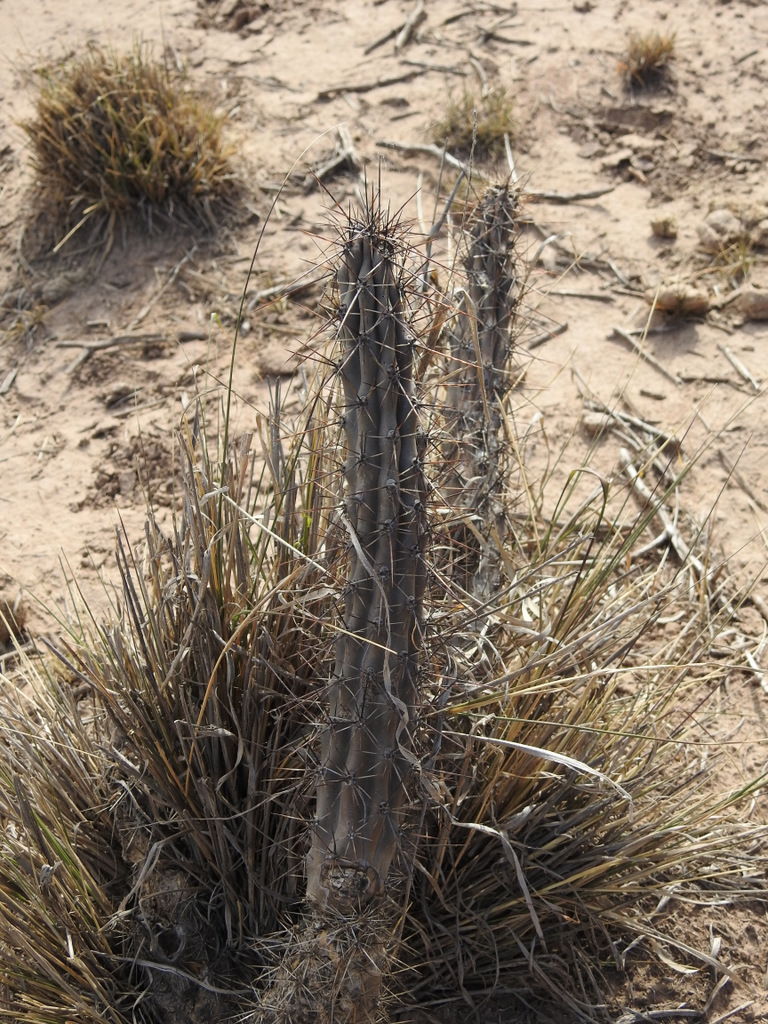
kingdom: Plantae
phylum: Tracheophyta
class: Magnoliopsida
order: Caryophyllales
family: Cactaceae
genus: Cereus
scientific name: Cereus aethiops
